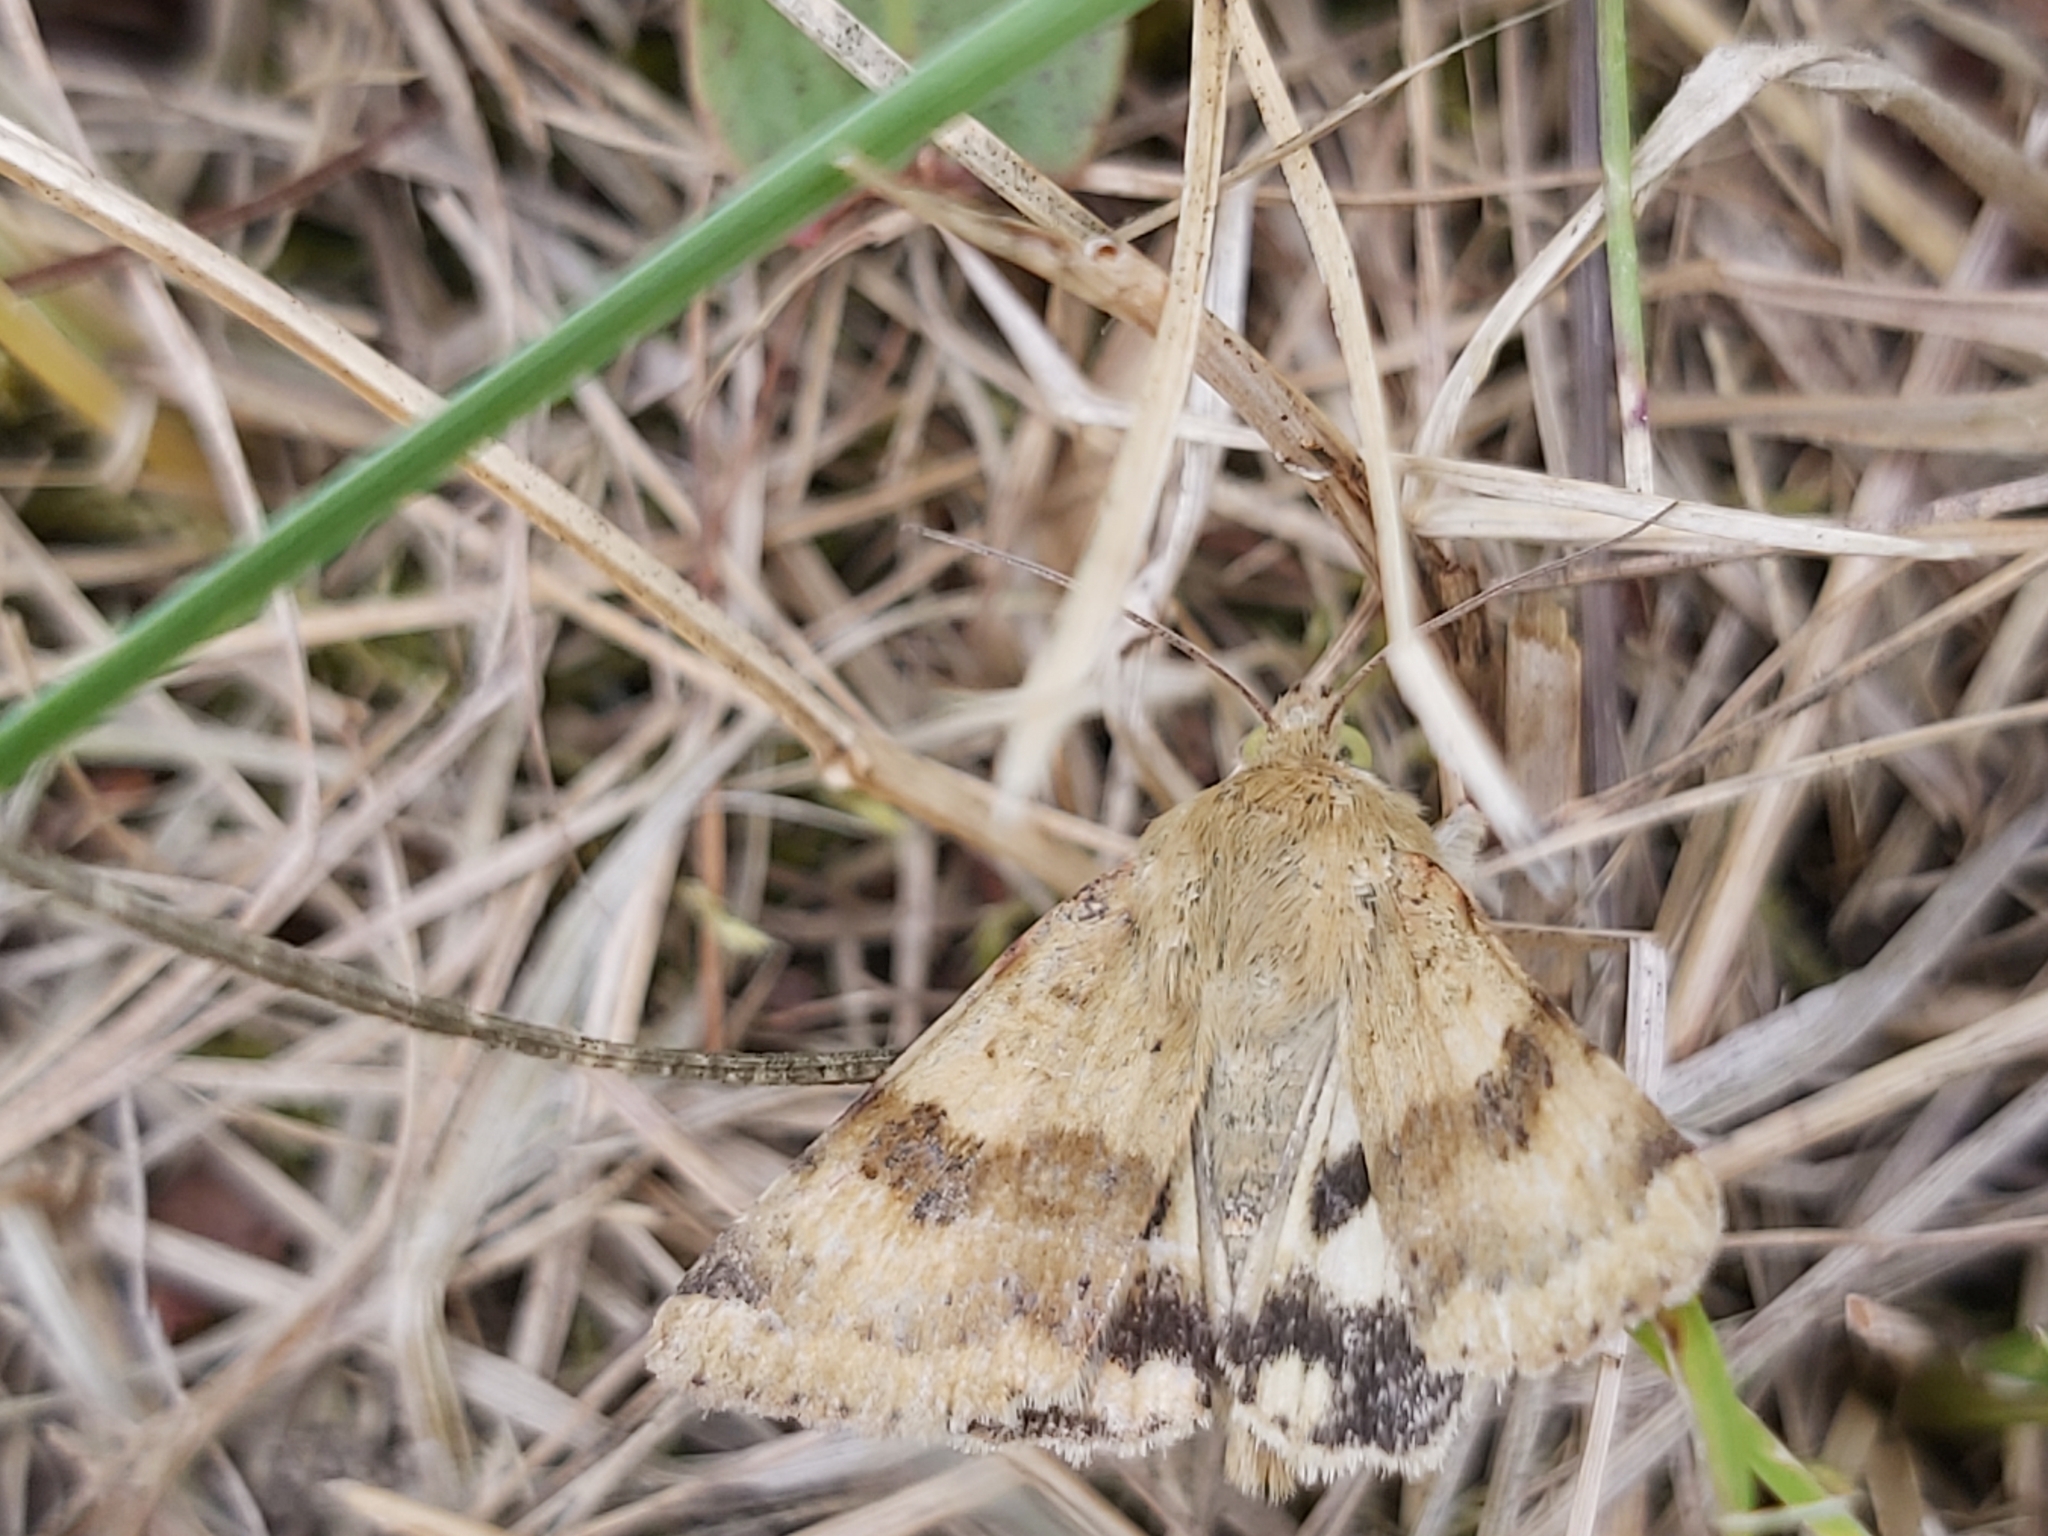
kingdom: Animalia
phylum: Arthropoda
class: Insecta
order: Lepidoptera
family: Noctuidae
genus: Heliothis
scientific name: Heliothis viriplaca
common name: Marbled clover
